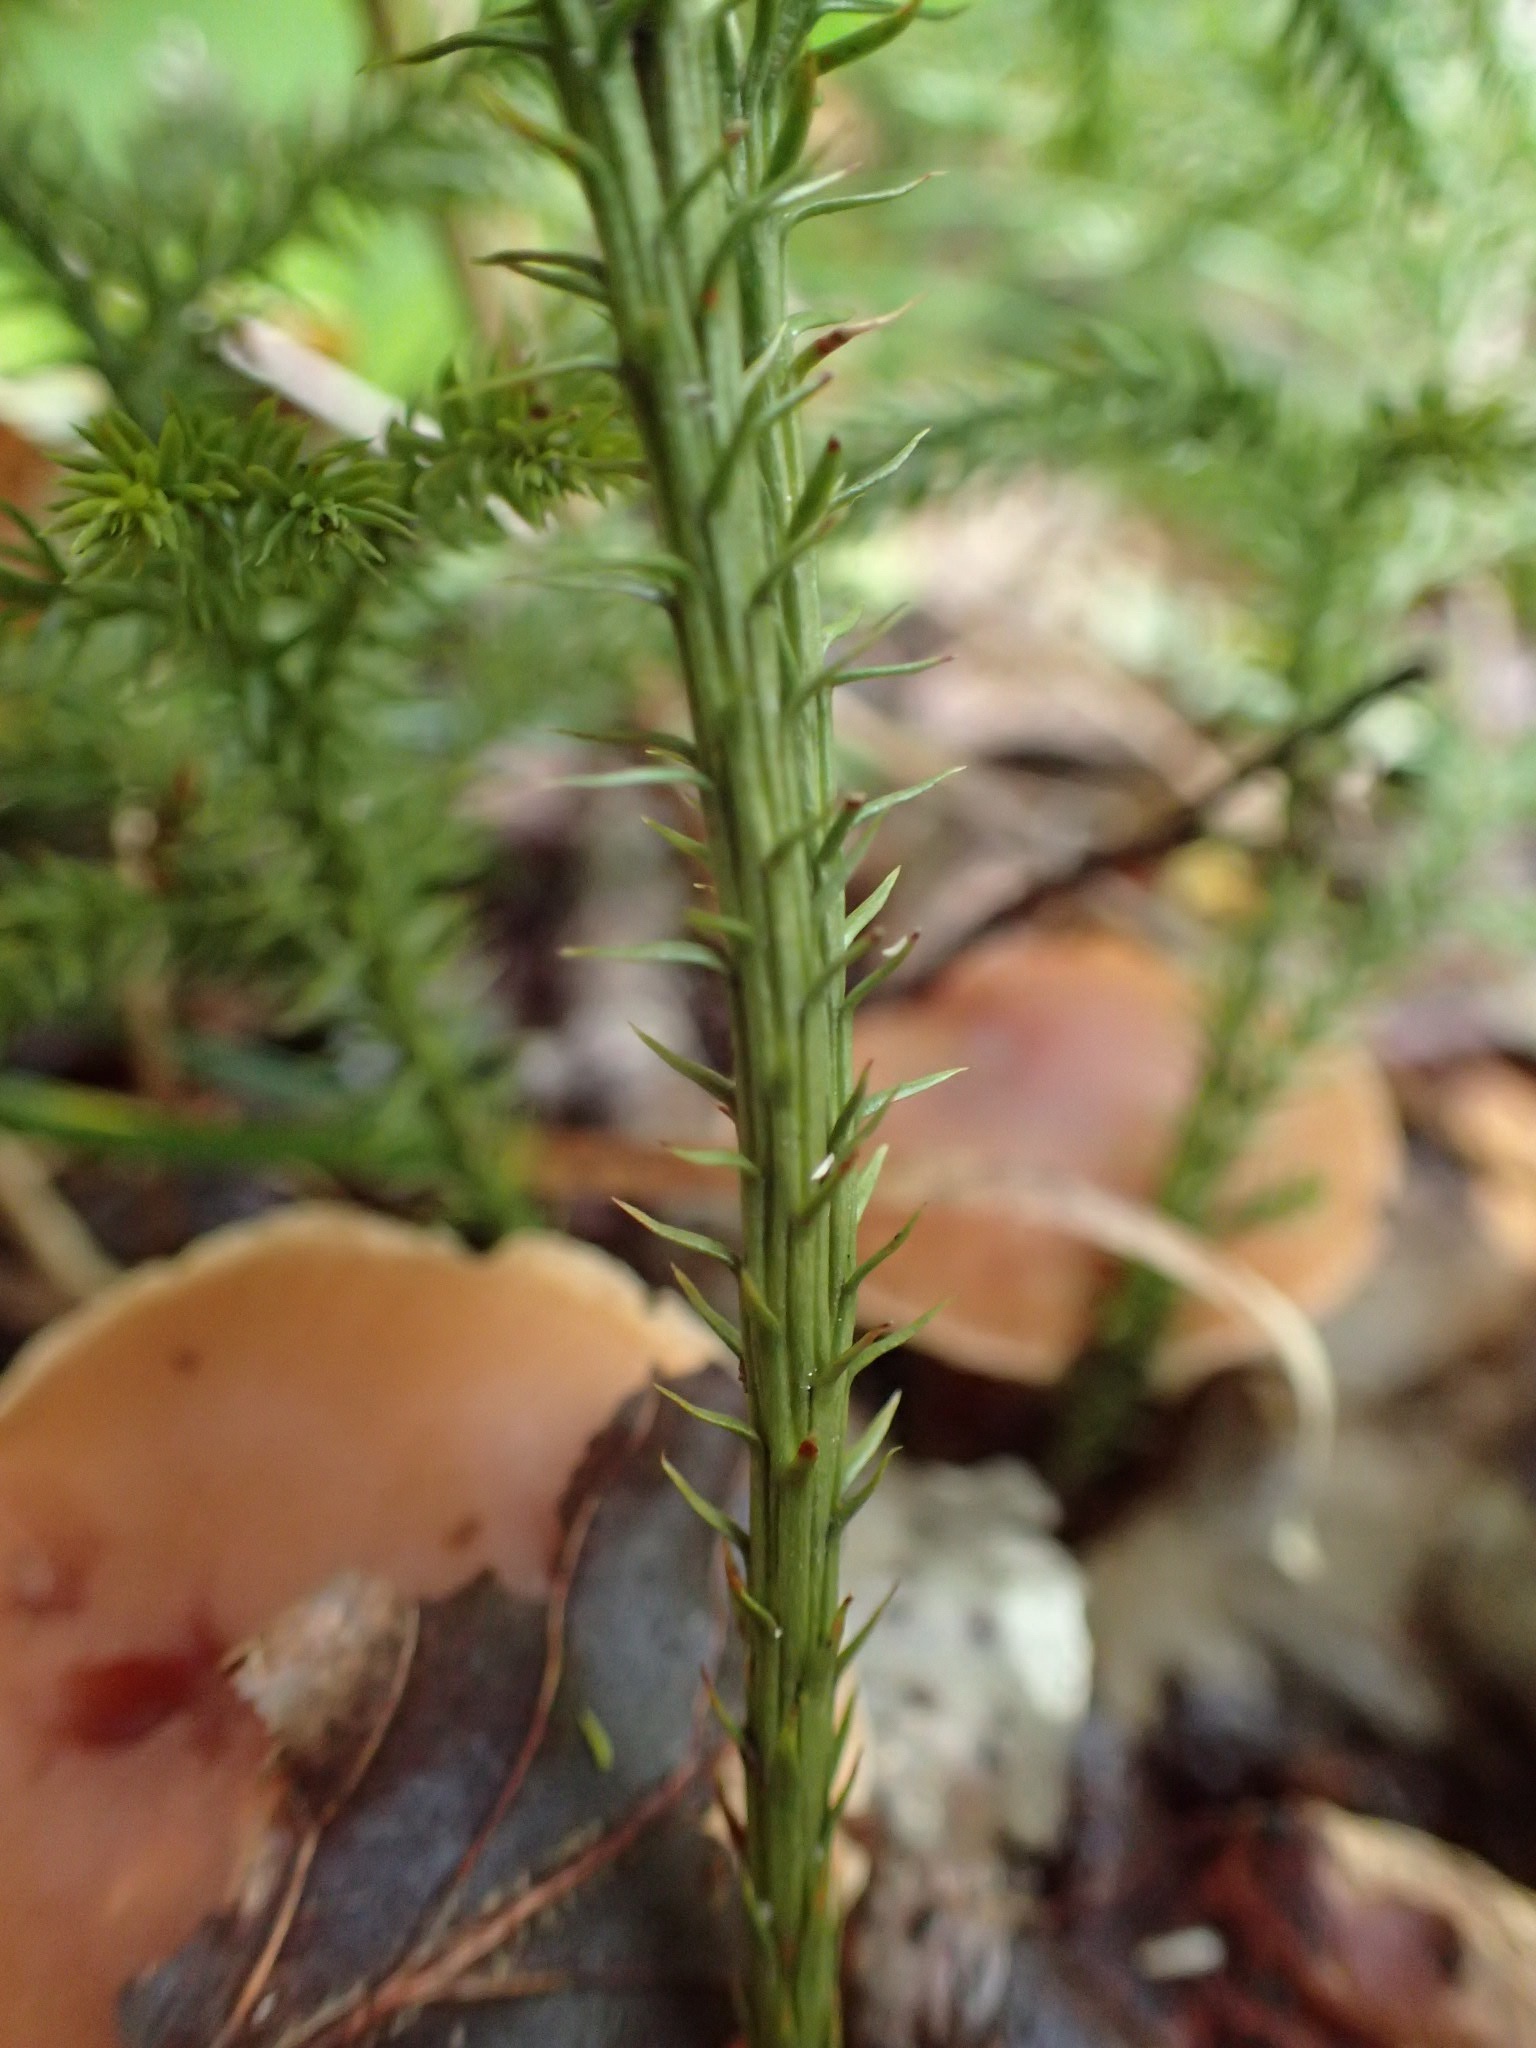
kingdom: Plantae
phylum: Tracheophyta
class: Lycopodiopsida
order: Lycopodiales
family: Lycopodiaceae
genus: Dendrolycopodium
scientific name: Dendrolycopodium dendroideum
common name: Northern tree-clubmoss
